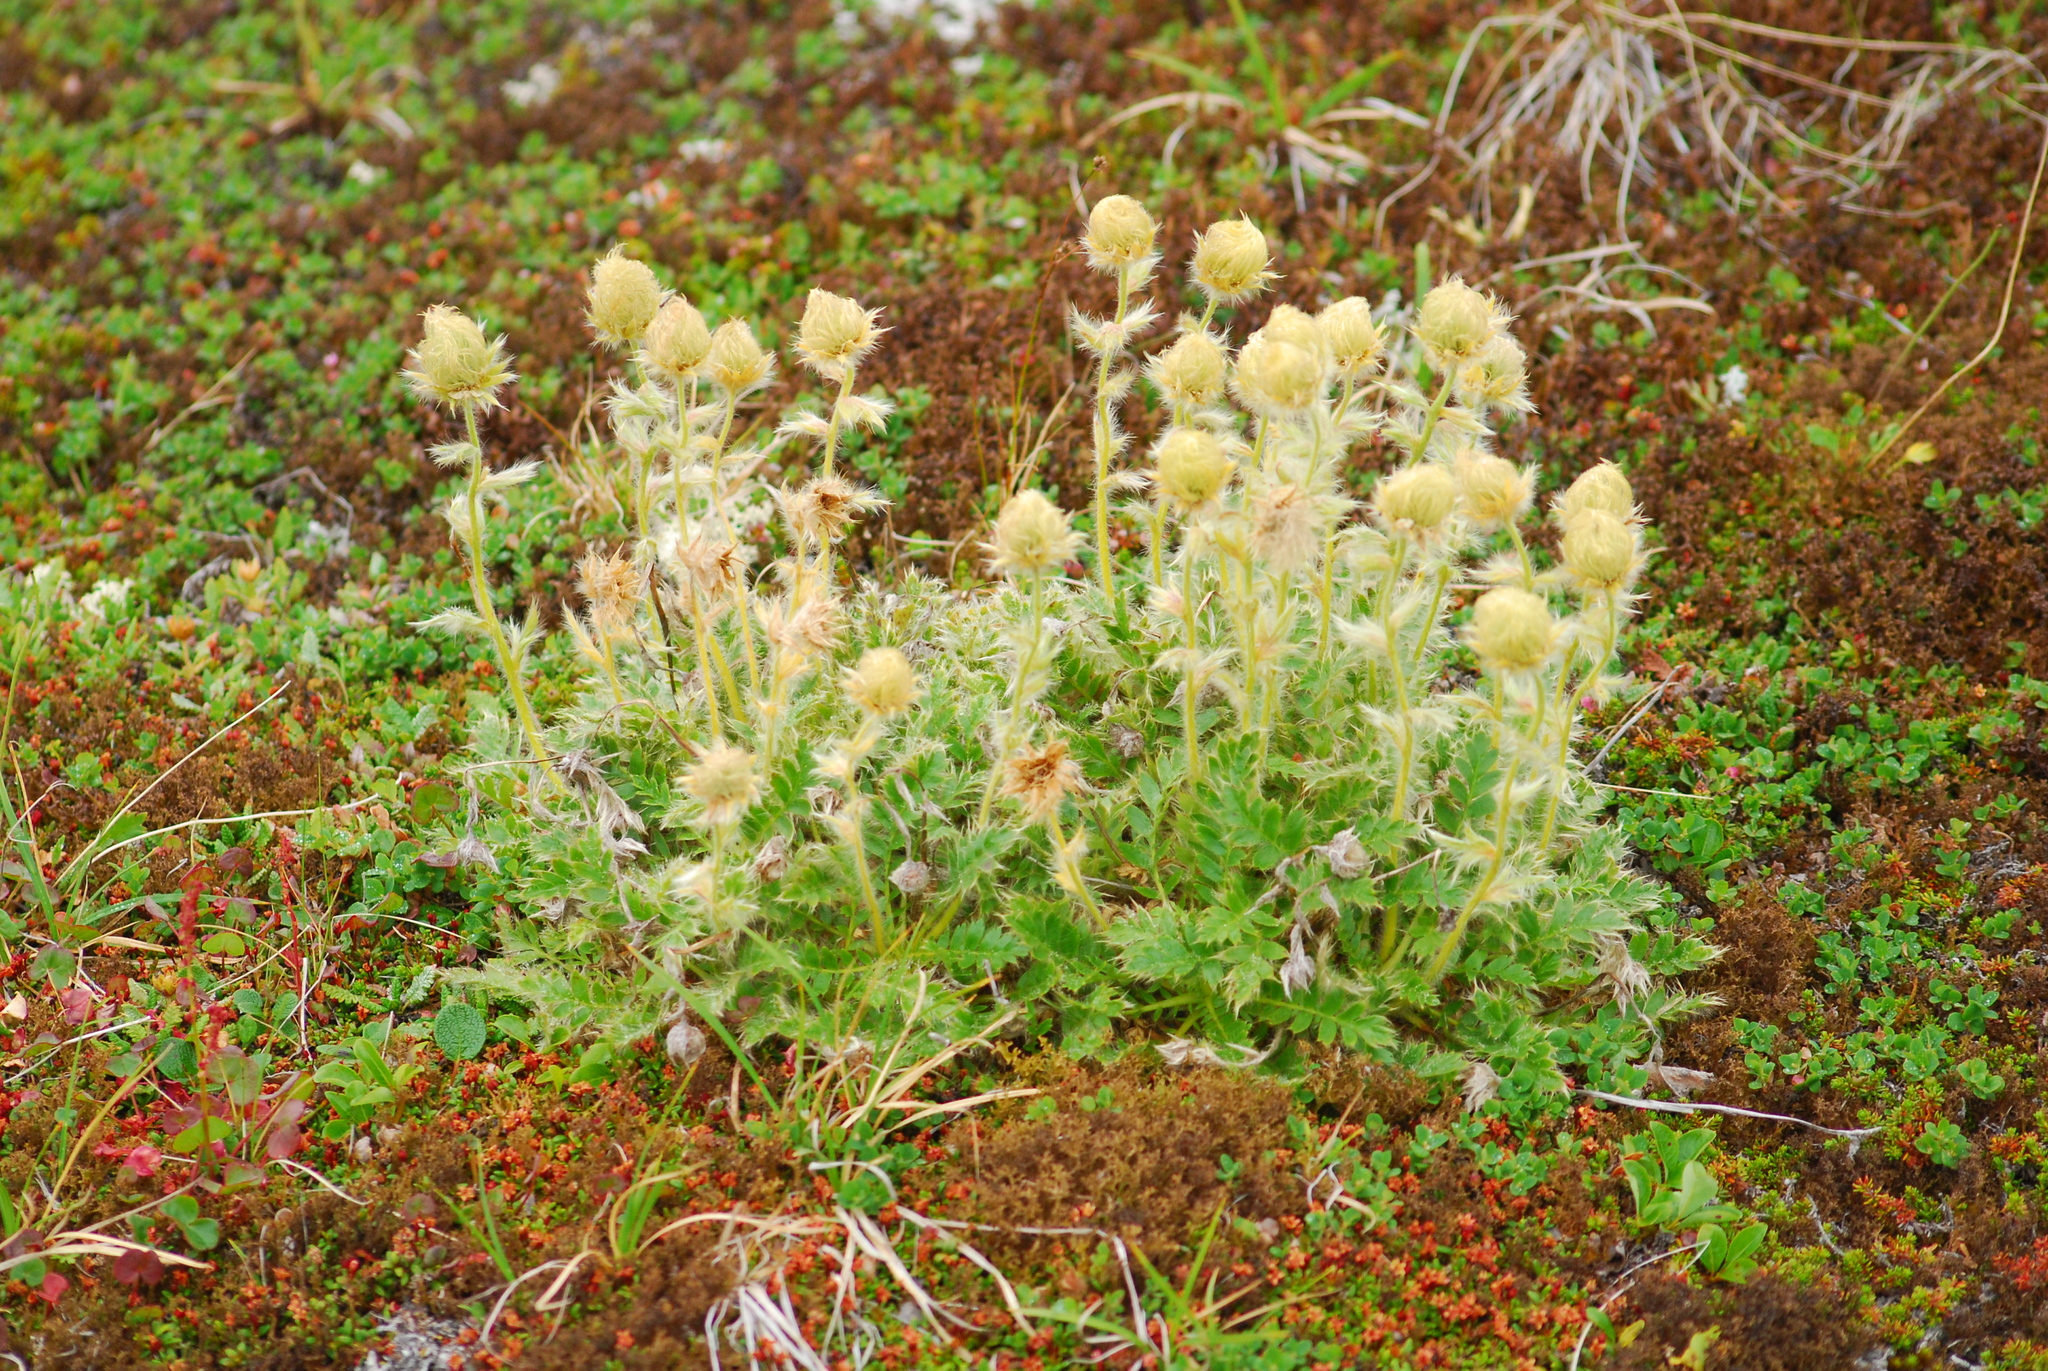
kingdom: Plantae
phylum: Tracheophyta
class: Magnoliopsida
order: Rosales
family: Rosaceae
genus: Geum
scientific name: Geum glaciale
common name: Glacier avens
